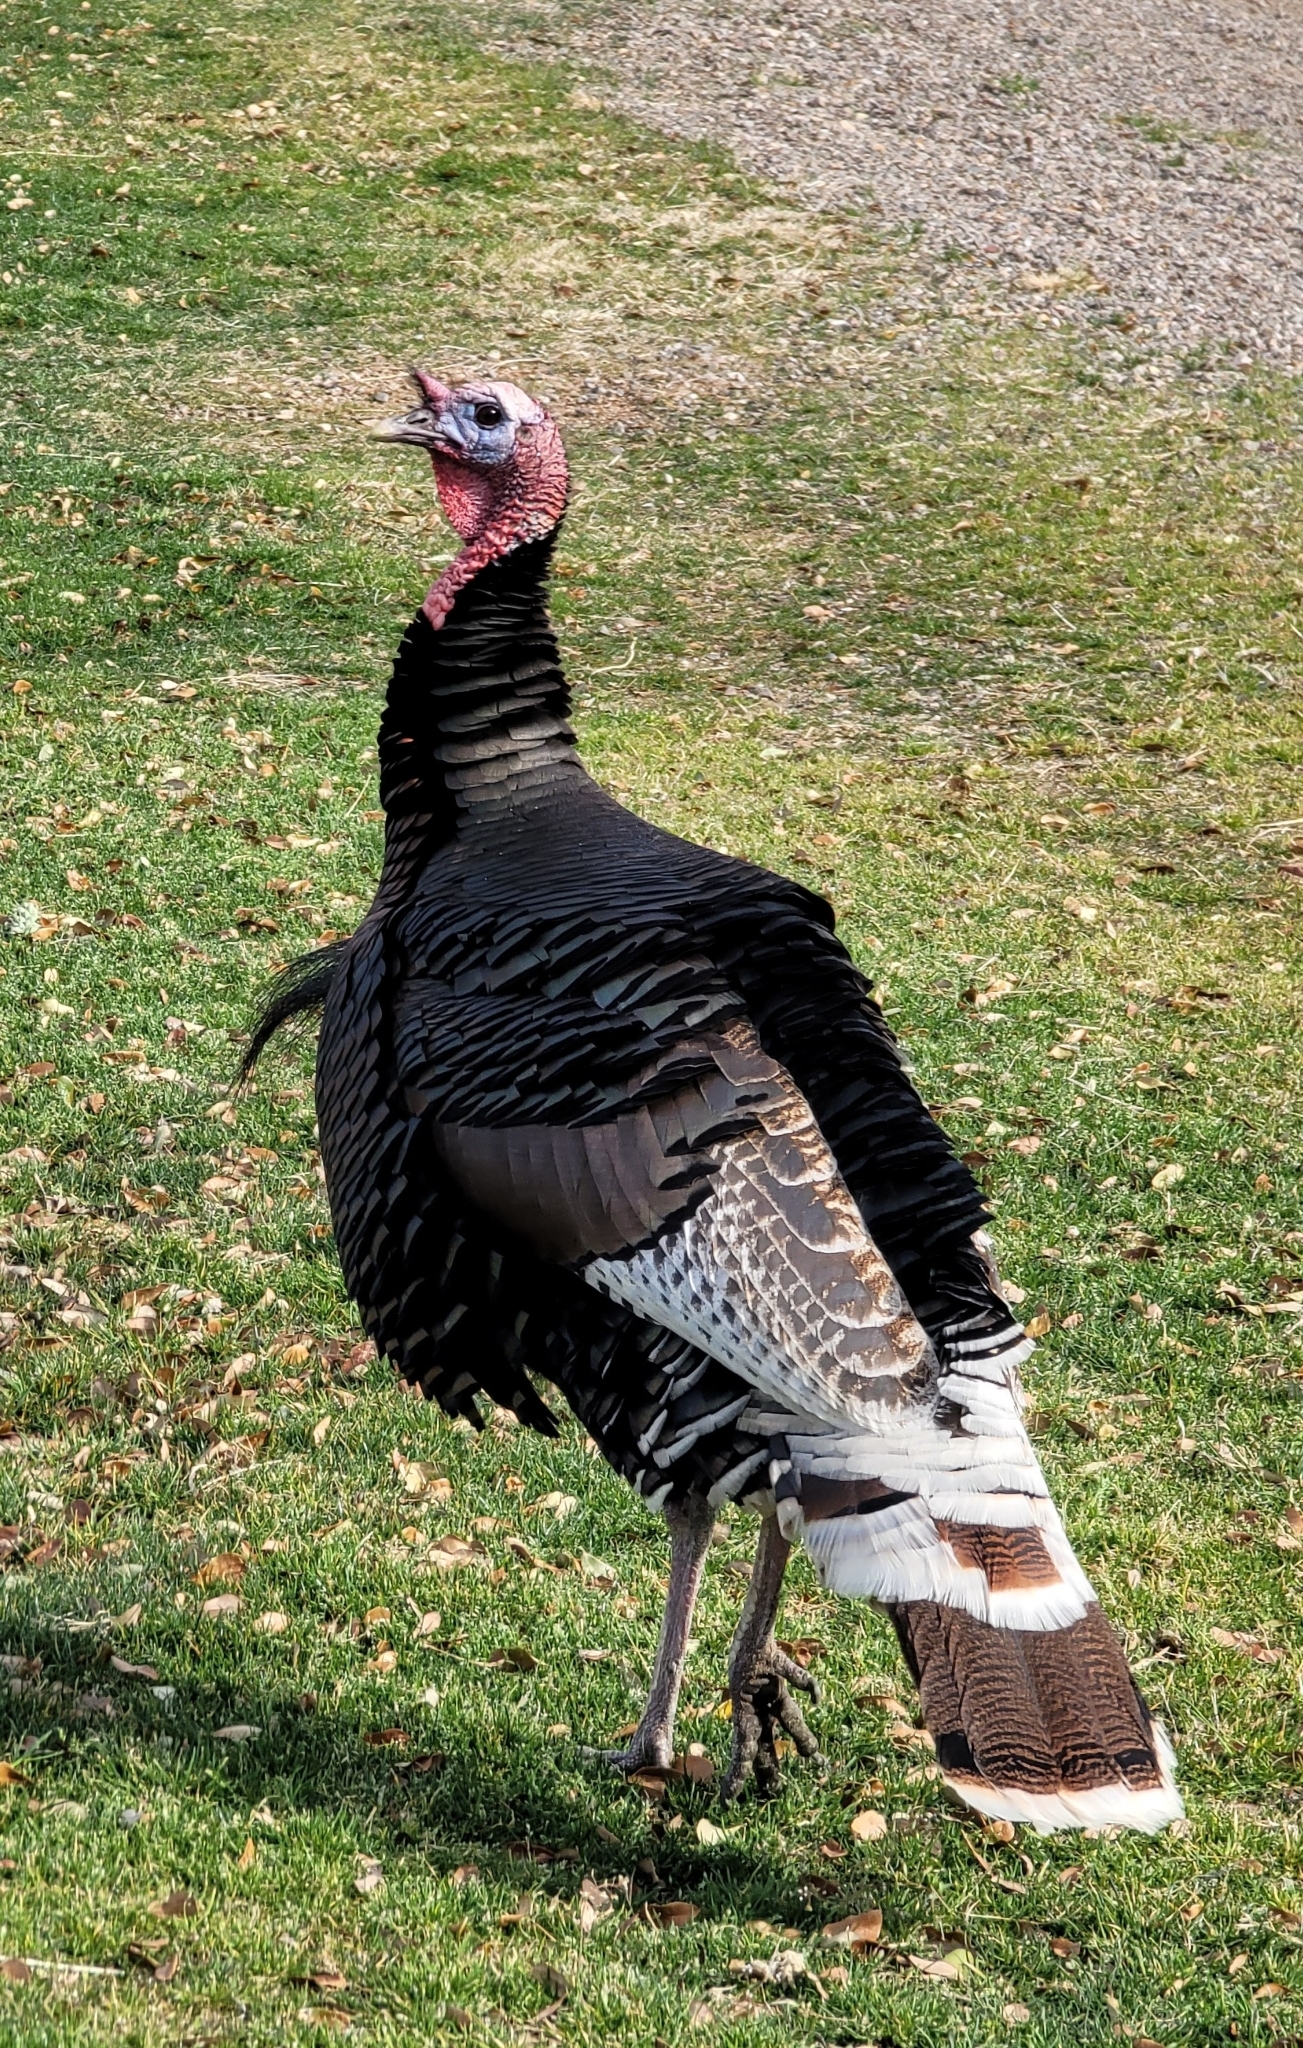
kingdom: Animalia
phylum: Chordata
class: Aves
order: Galliformes
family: Phasianidae
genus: Meleagris
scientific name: Meleagris gallopavo
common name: Wild turkey
